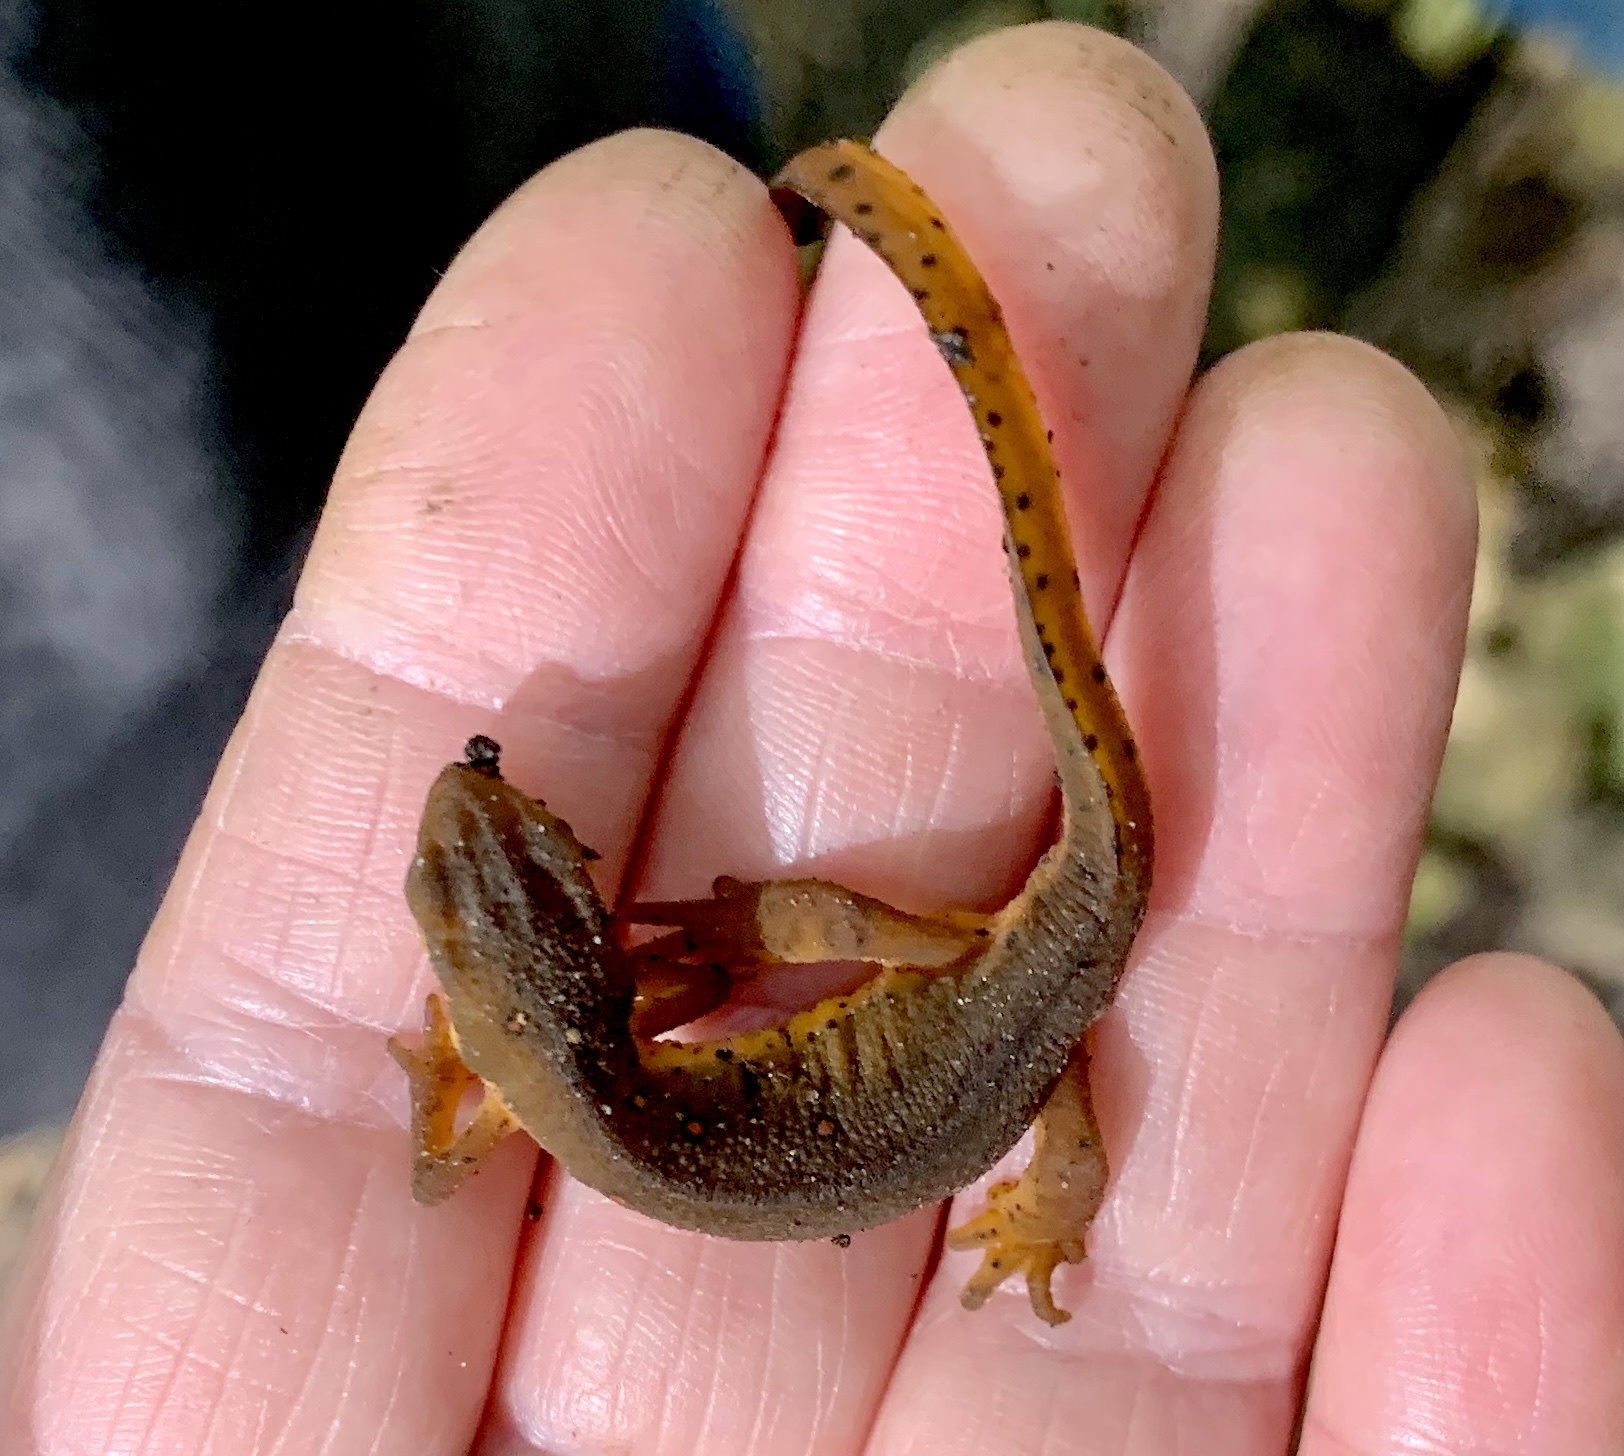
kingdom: Animalia
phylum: Chordata
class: Amphibia
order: Caudata
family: Salamandridae
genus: Notophthalmus
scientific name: Notophthalmus viridescens
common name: Eastern newt
